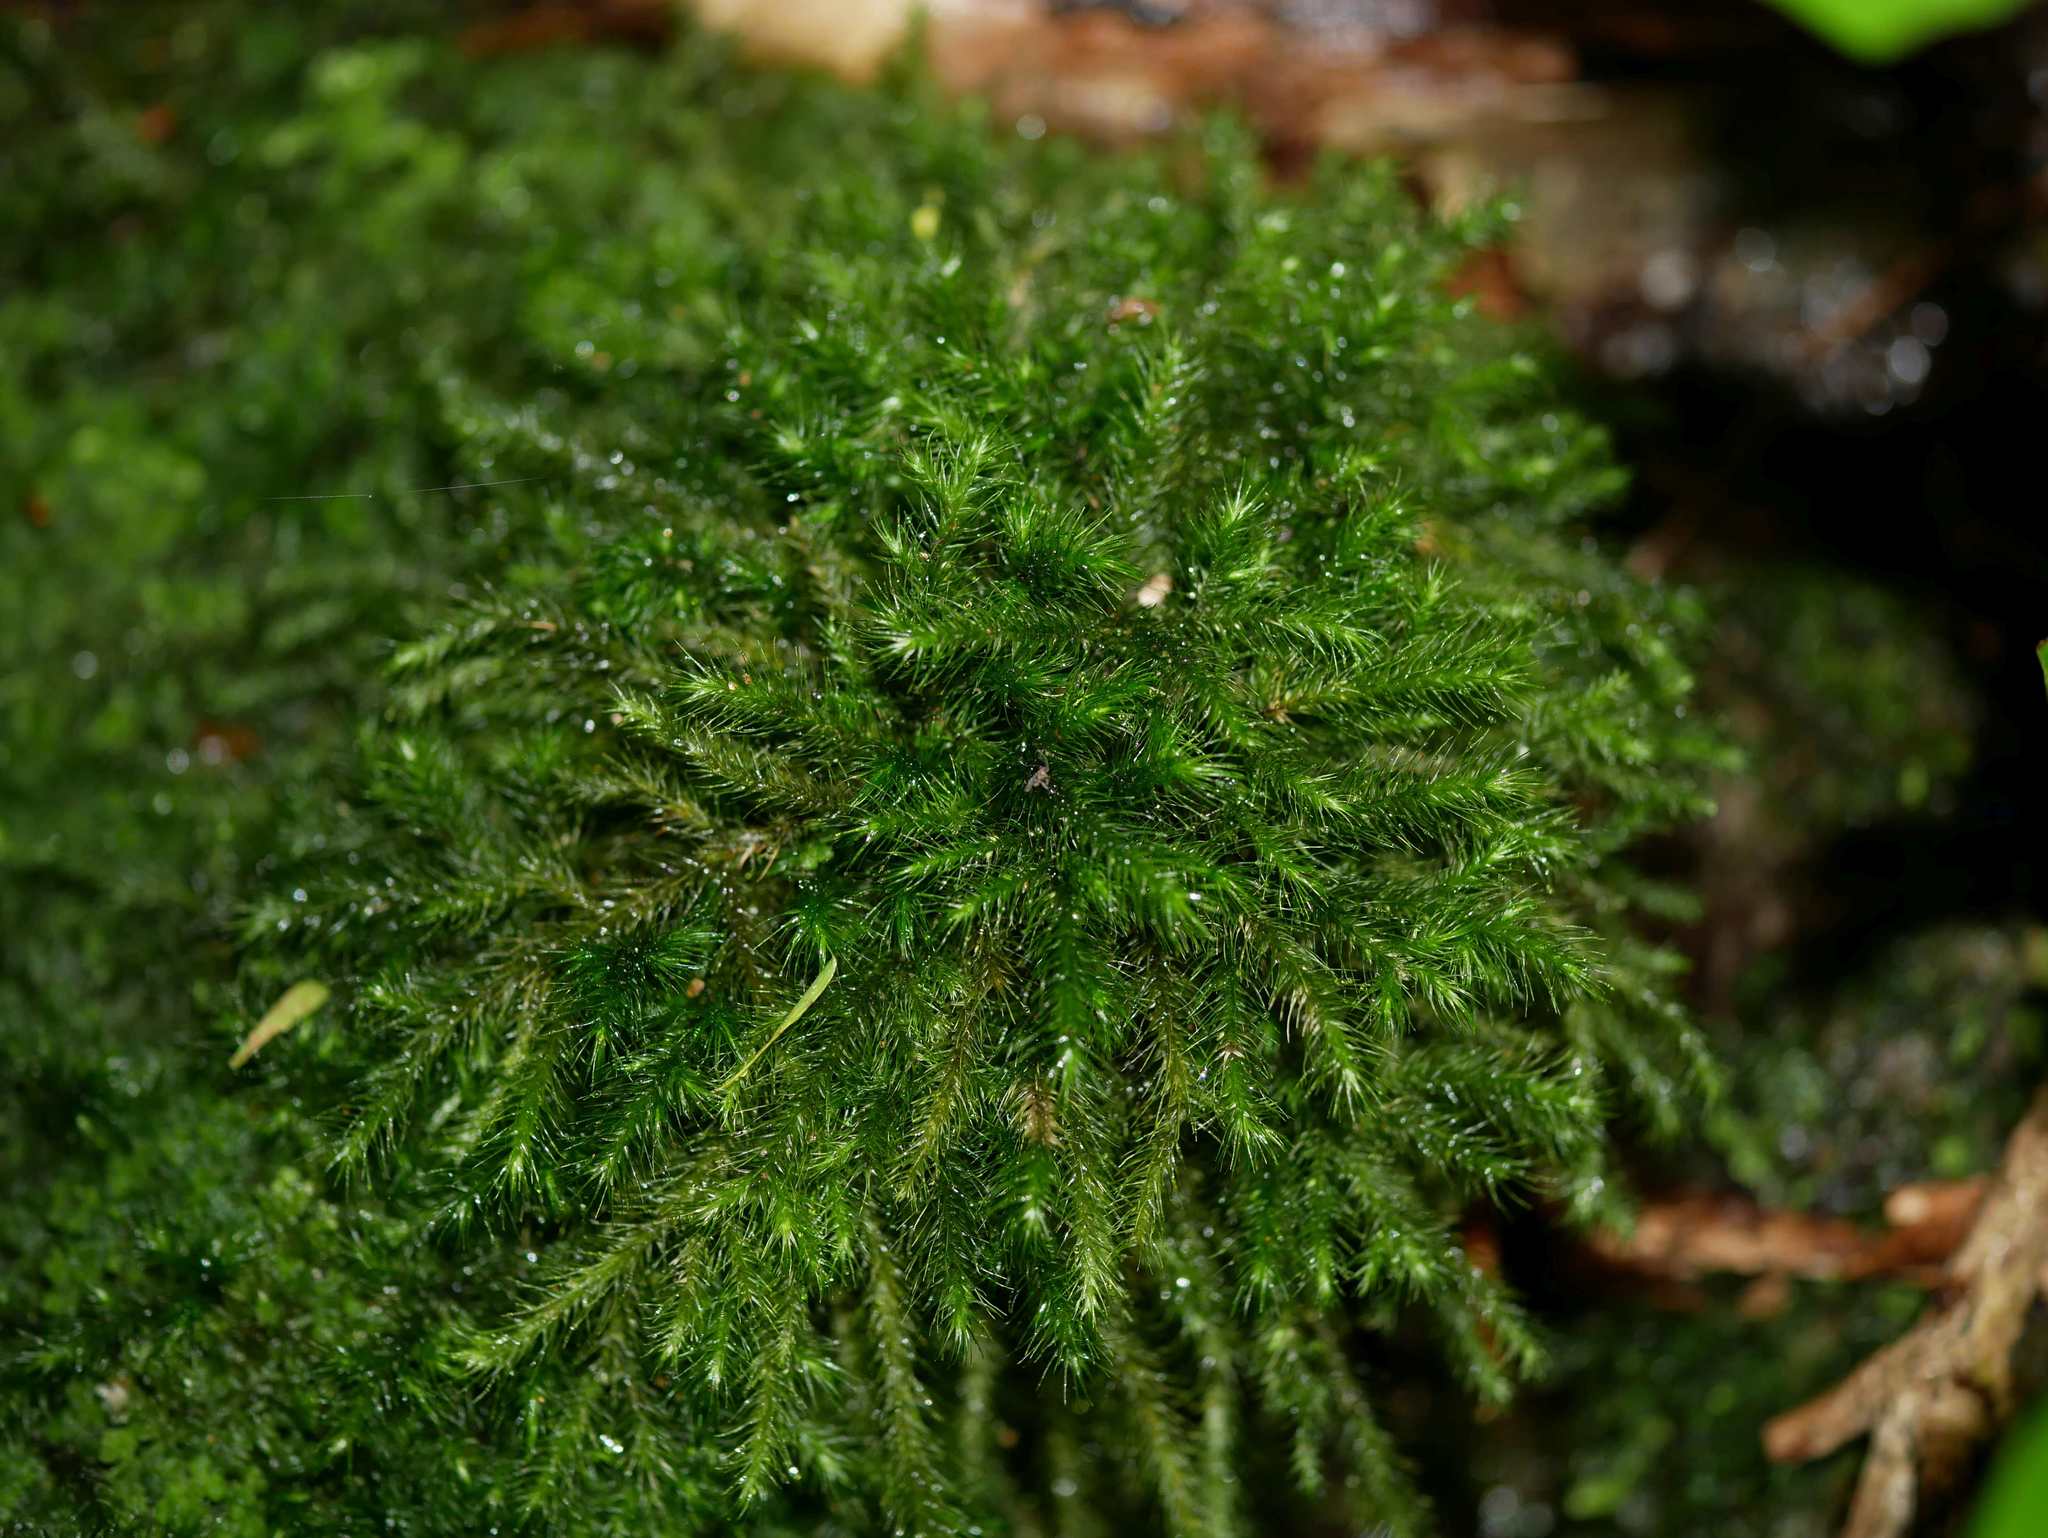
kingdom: Plantae
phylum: Bryophyta
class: Bryopsida
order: Hypnales
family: Neckeraceae
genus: Echinodiopsis
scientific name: Echinodiopsis hispida
